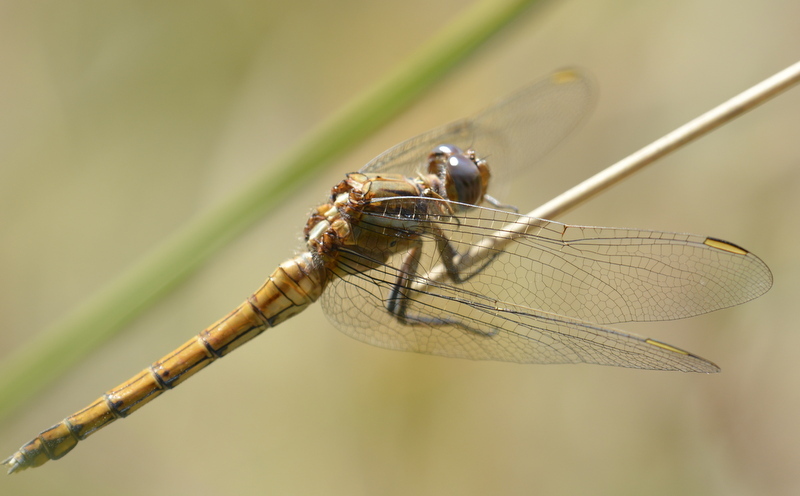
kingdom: Animalia
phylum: Arthropoda
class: Insecta
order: Odonata
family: Libellulidae
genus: Orthetrum
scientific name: Orthetrum chrysostigma
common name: Epaulet skimmer
